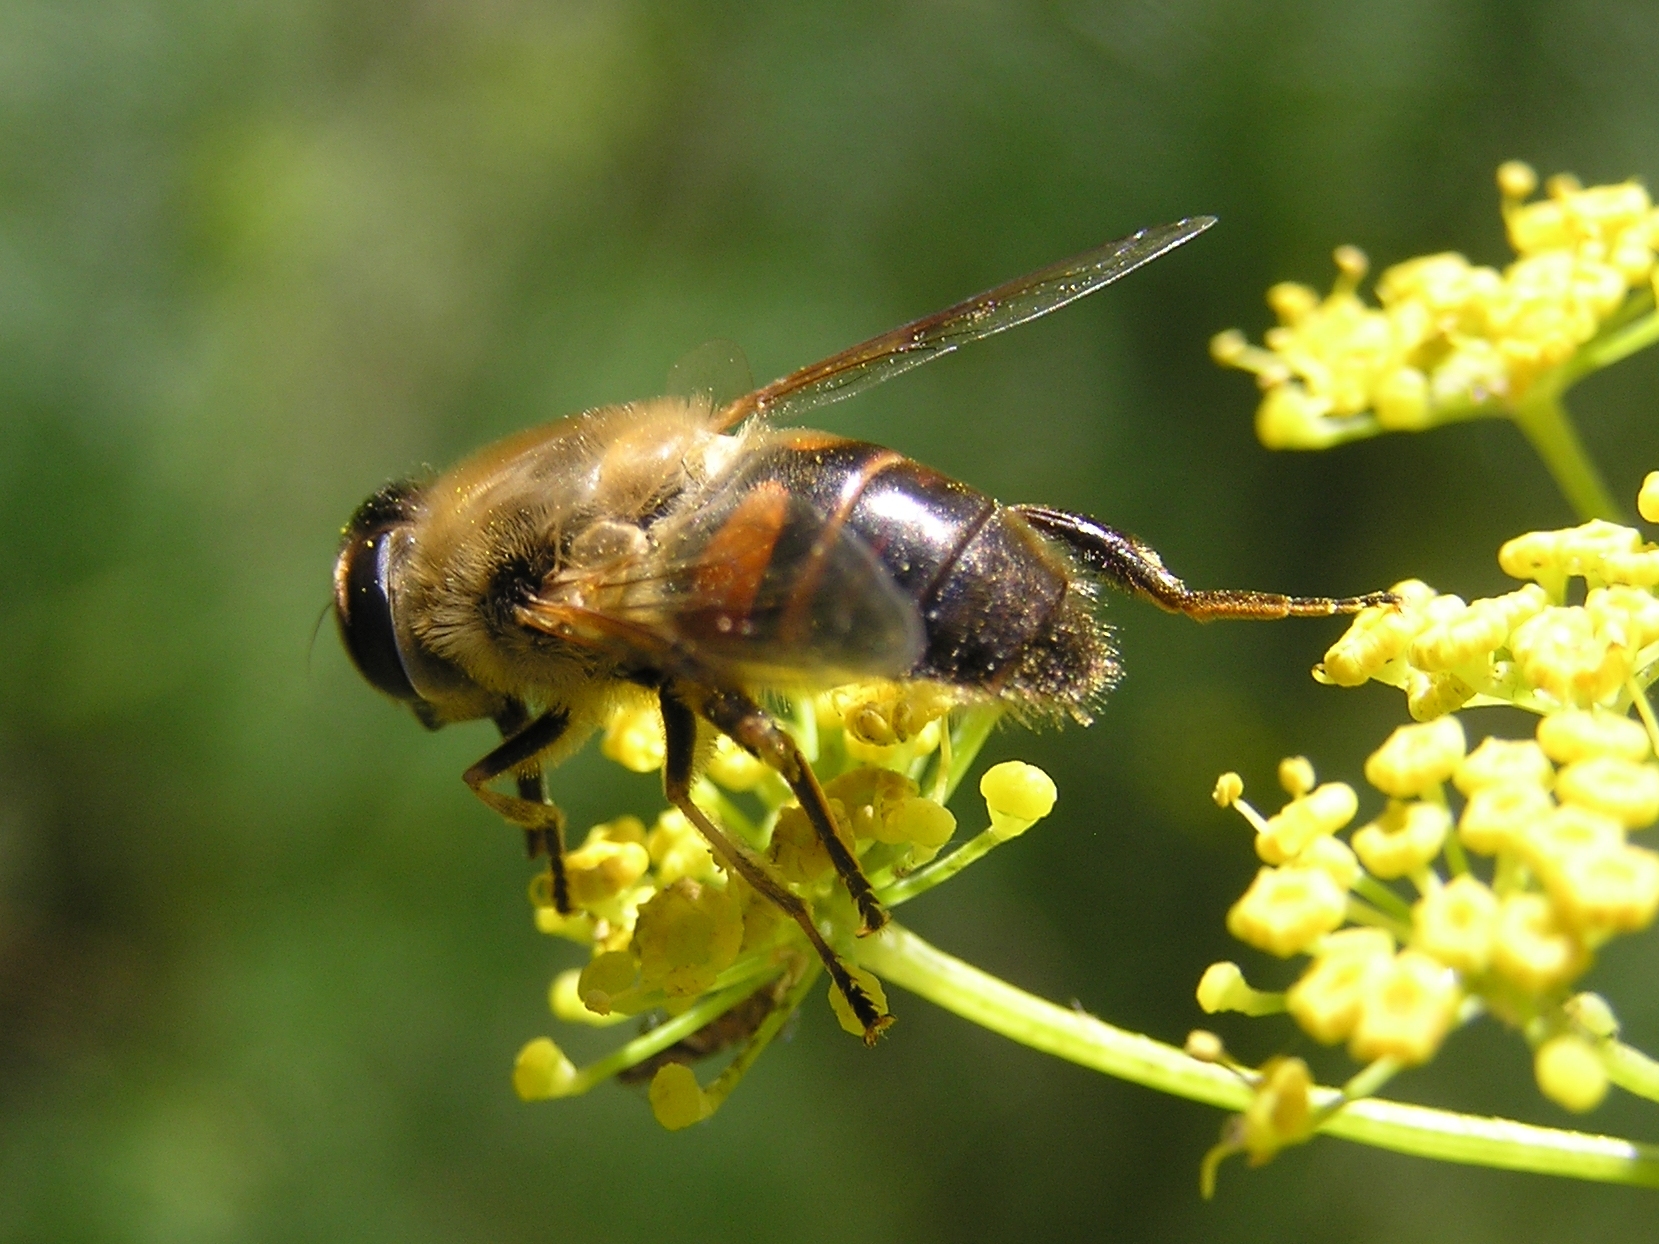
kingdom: Animalia
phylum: Arthropoda
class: Insecta
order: Diptera
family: Syrphidae
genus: Eristalis
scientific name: Eristalis tenax
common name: Drone fly
